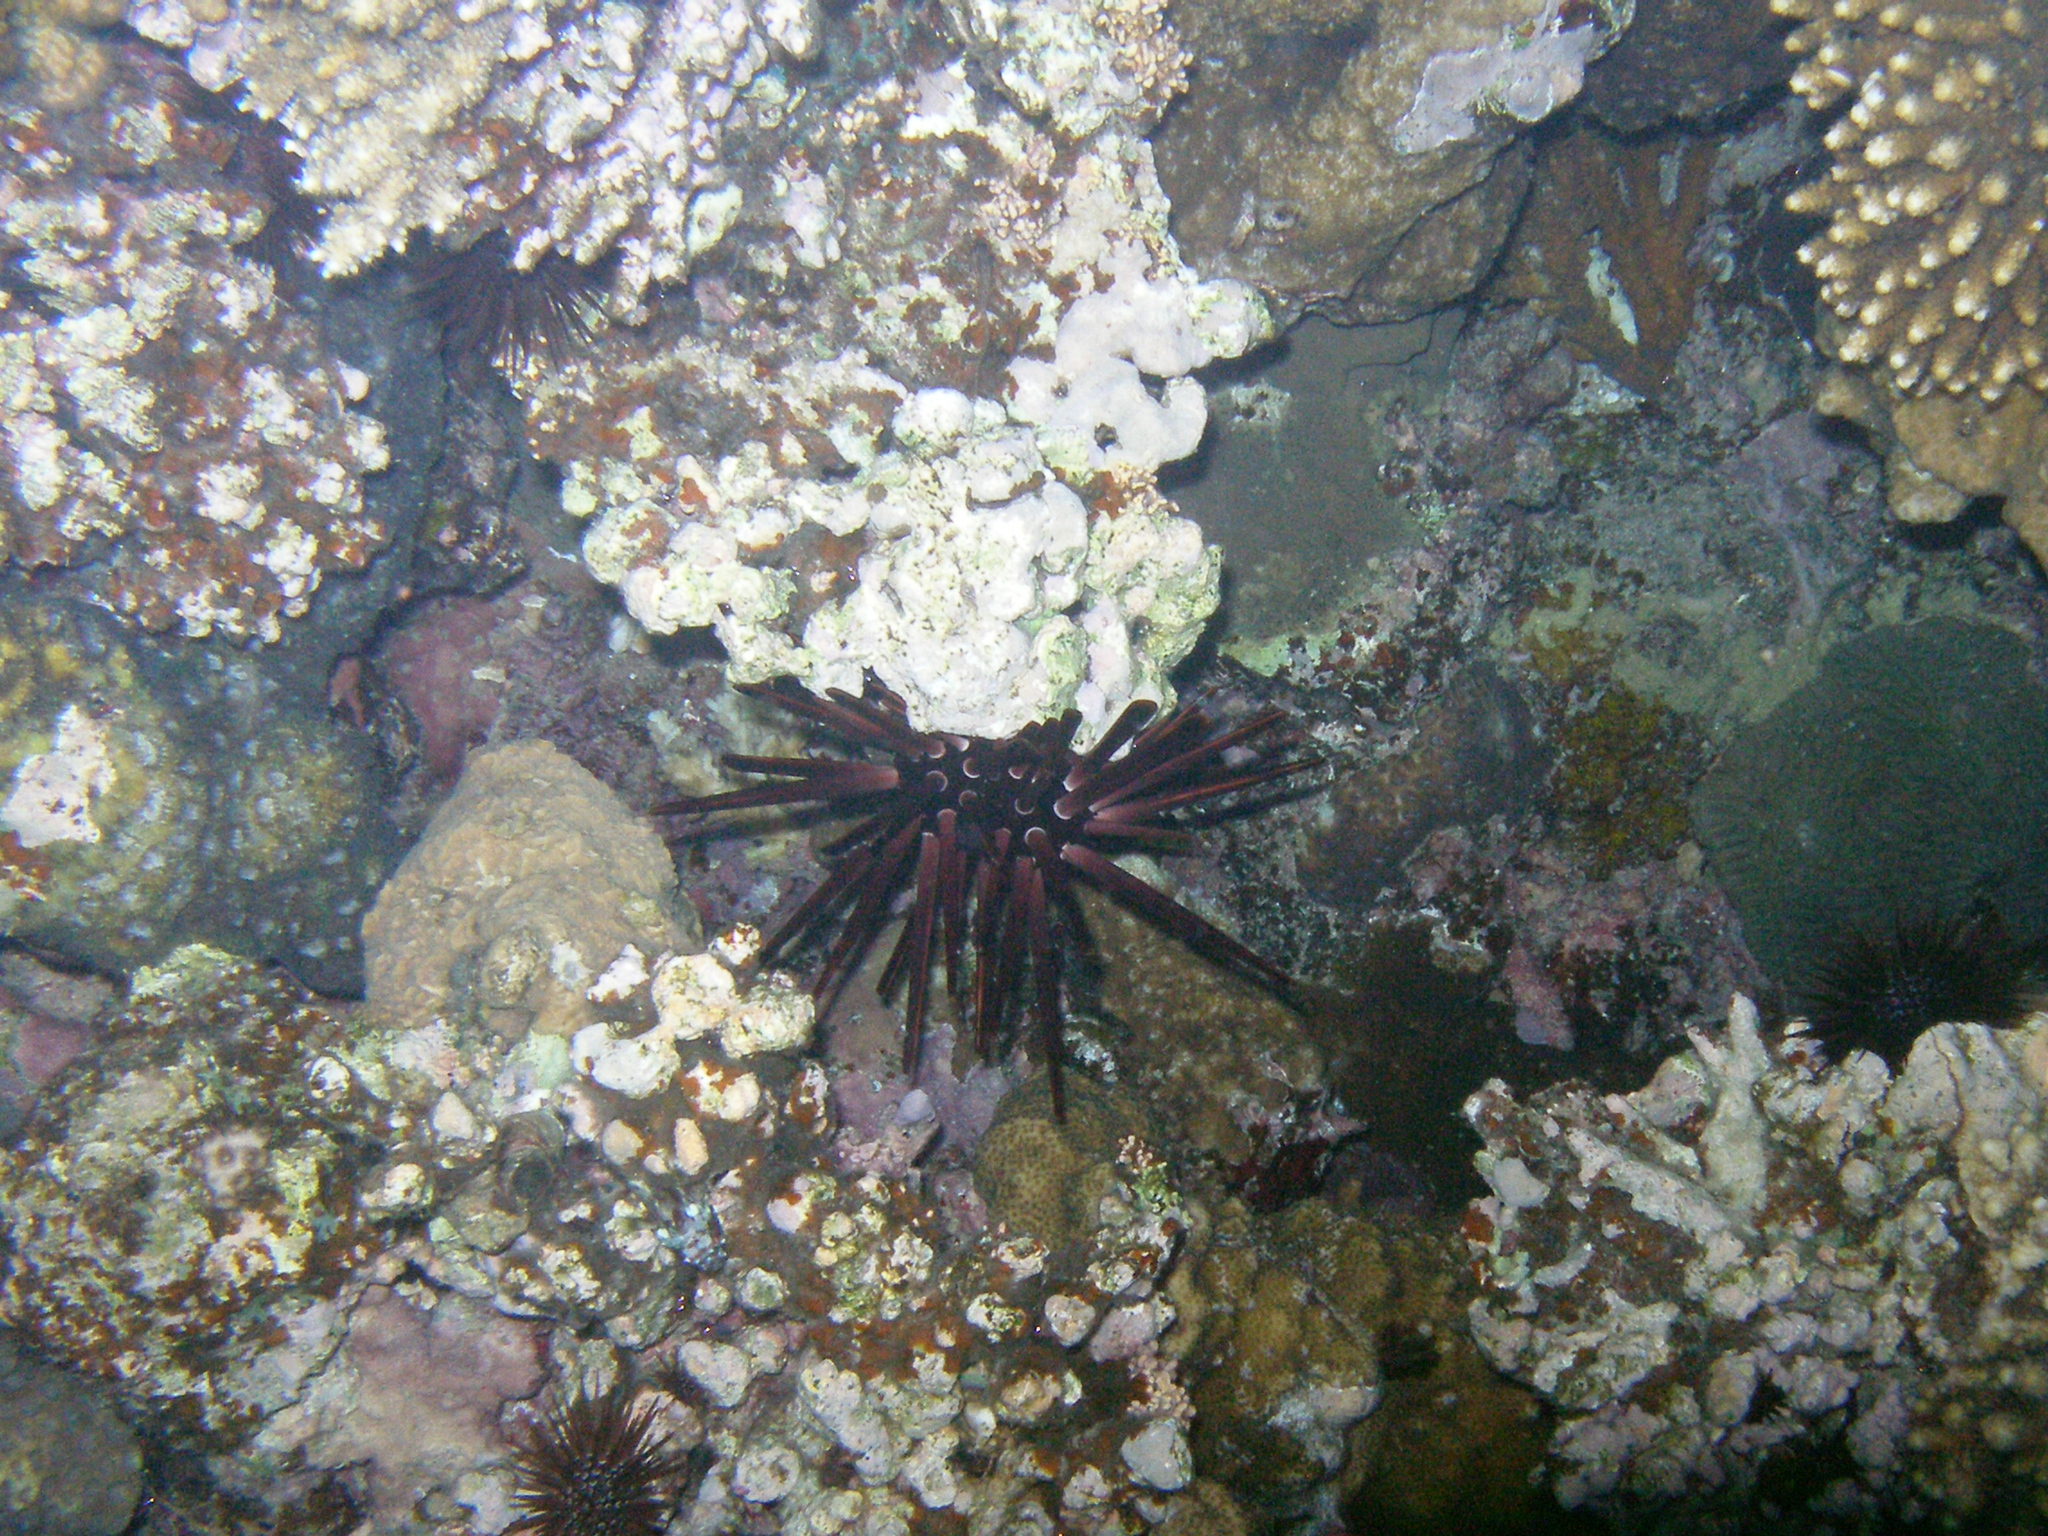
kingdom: Animalia
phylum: Echinodermata
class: Echinoidea
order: Camarodonta
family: Echinometridae
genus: Heterocentrotus
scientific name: Heterocentrotus mamillatus
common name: Slate pencil urchin
